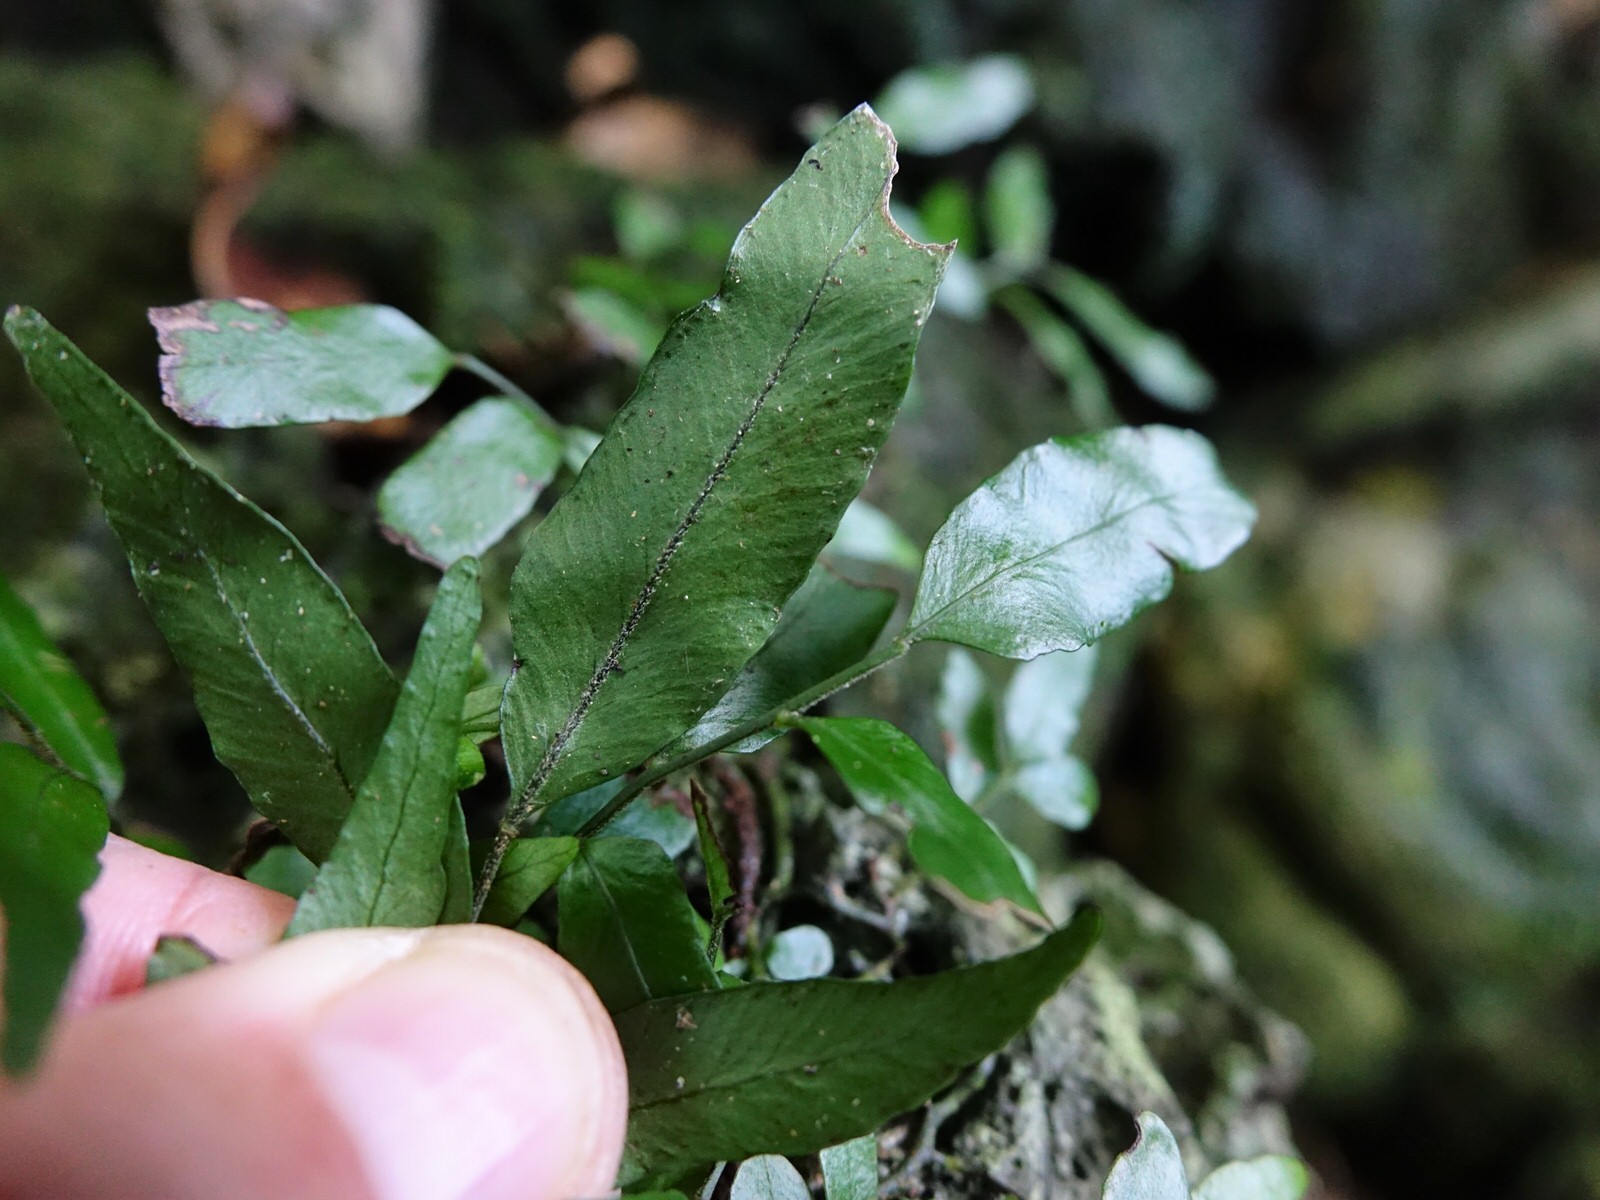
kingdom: Plantae
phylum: Tracheophyta
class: Polypodiopsida
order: Polypodiales
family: Tectariaceae
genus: Arthropteris
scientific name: Arthropteris tenella
